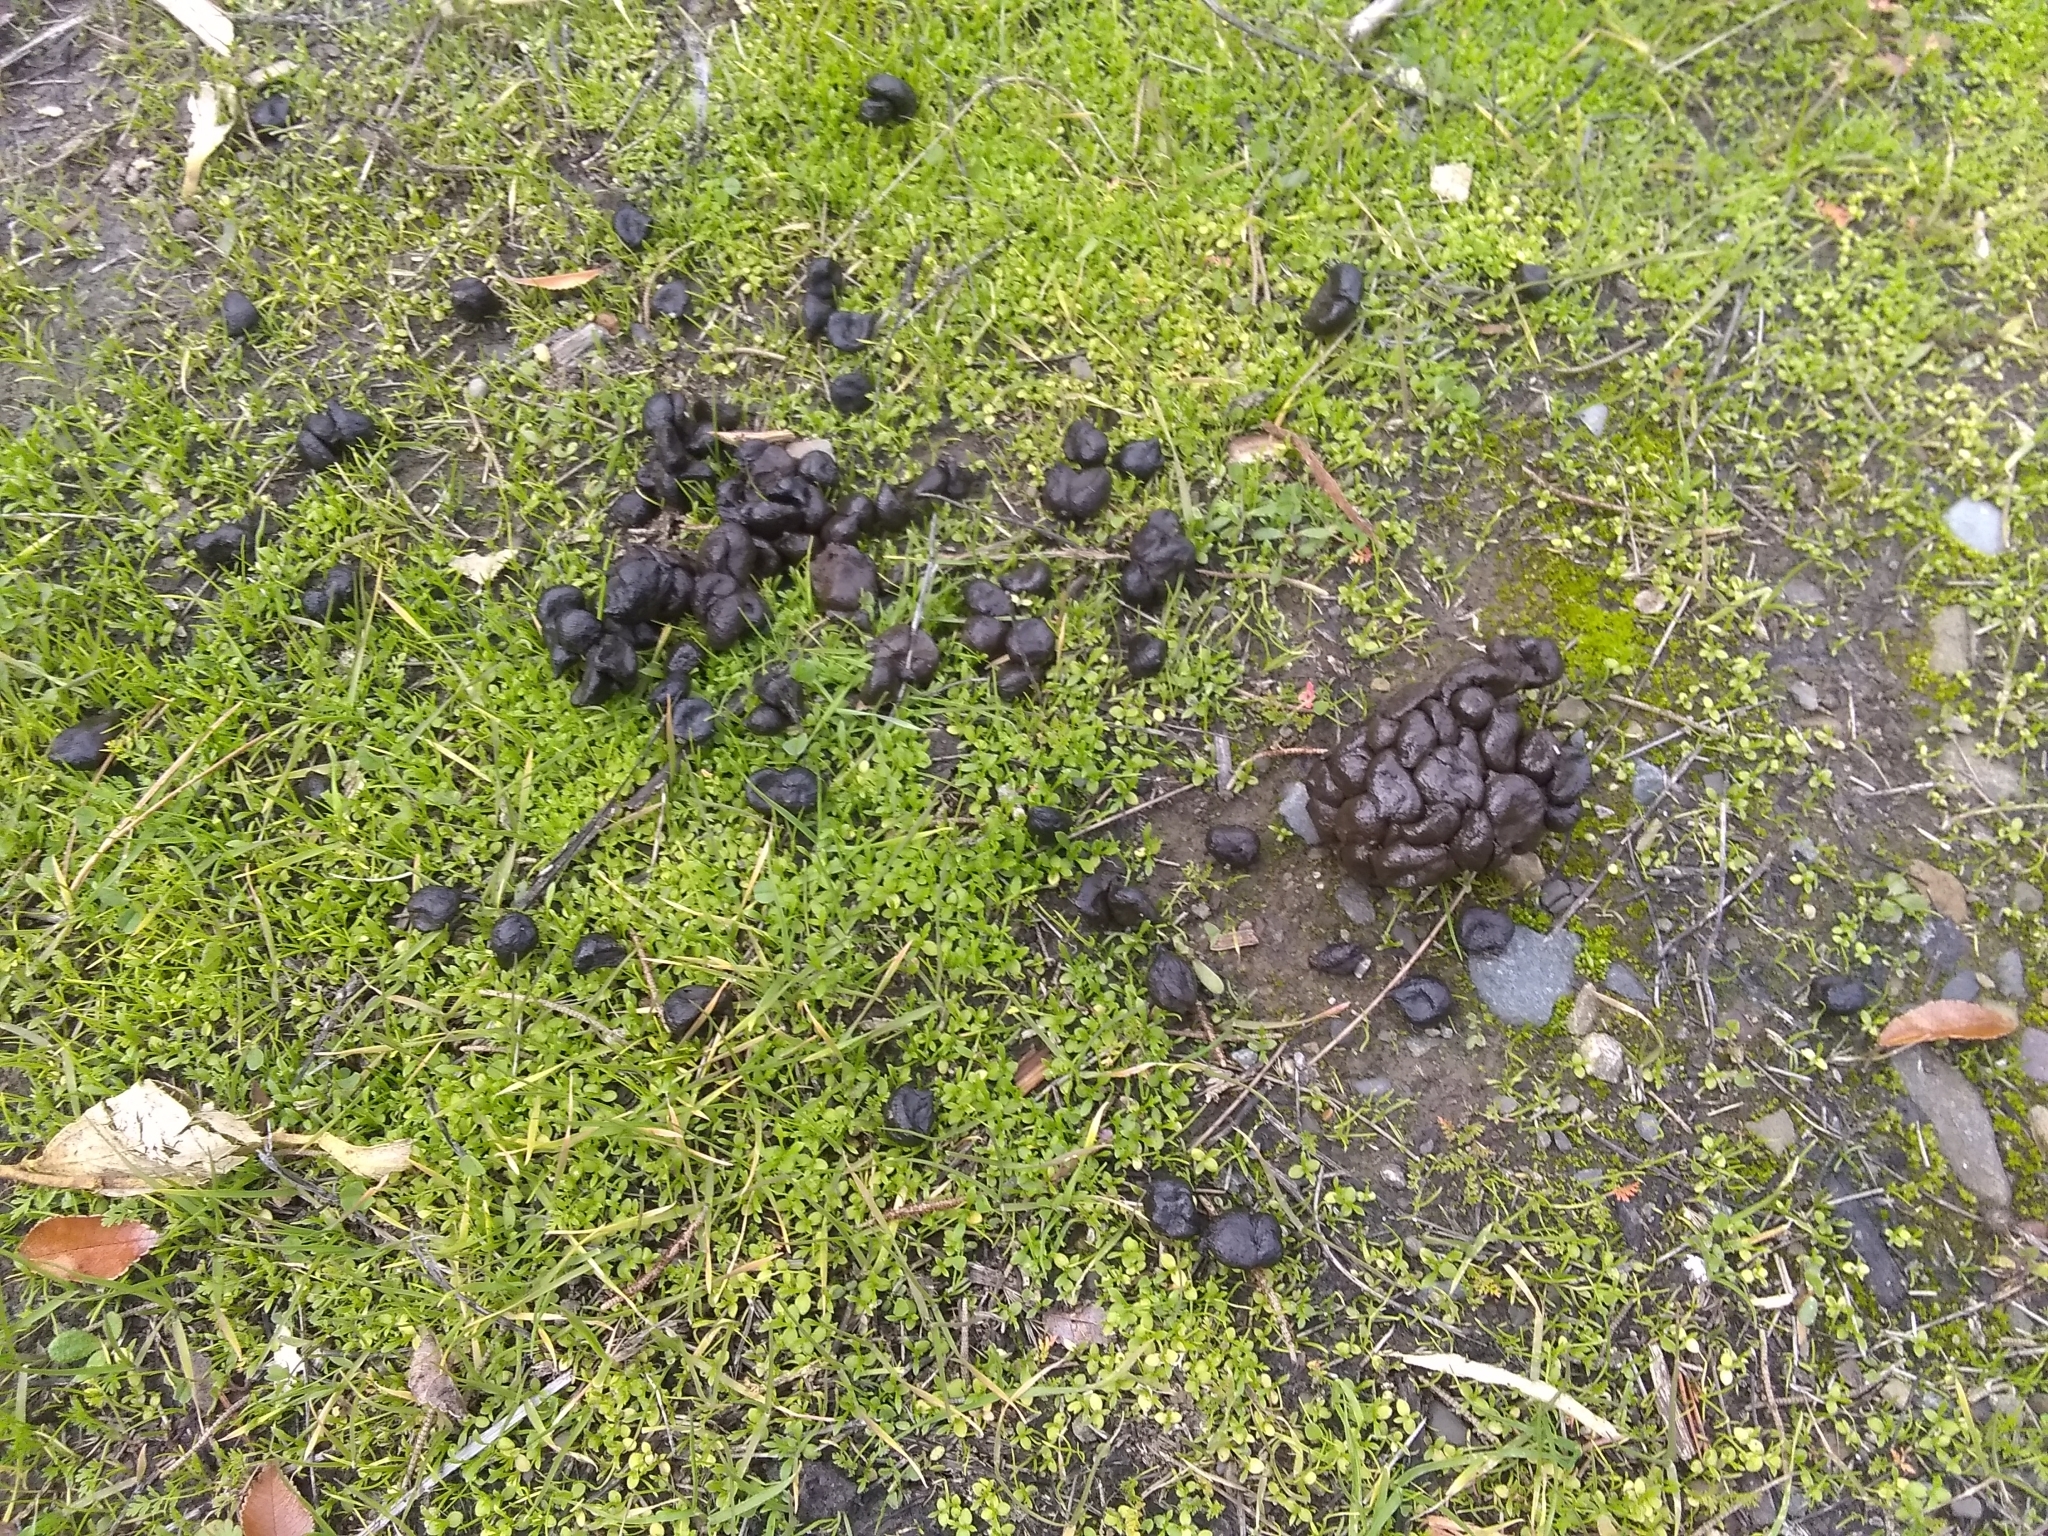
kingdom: Animalia
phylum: Chordata
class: Mammalia
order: Artiodactyla
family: Cervidae
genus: Odocoileus
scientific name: Odocoileus hemionus
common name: Mule deer
